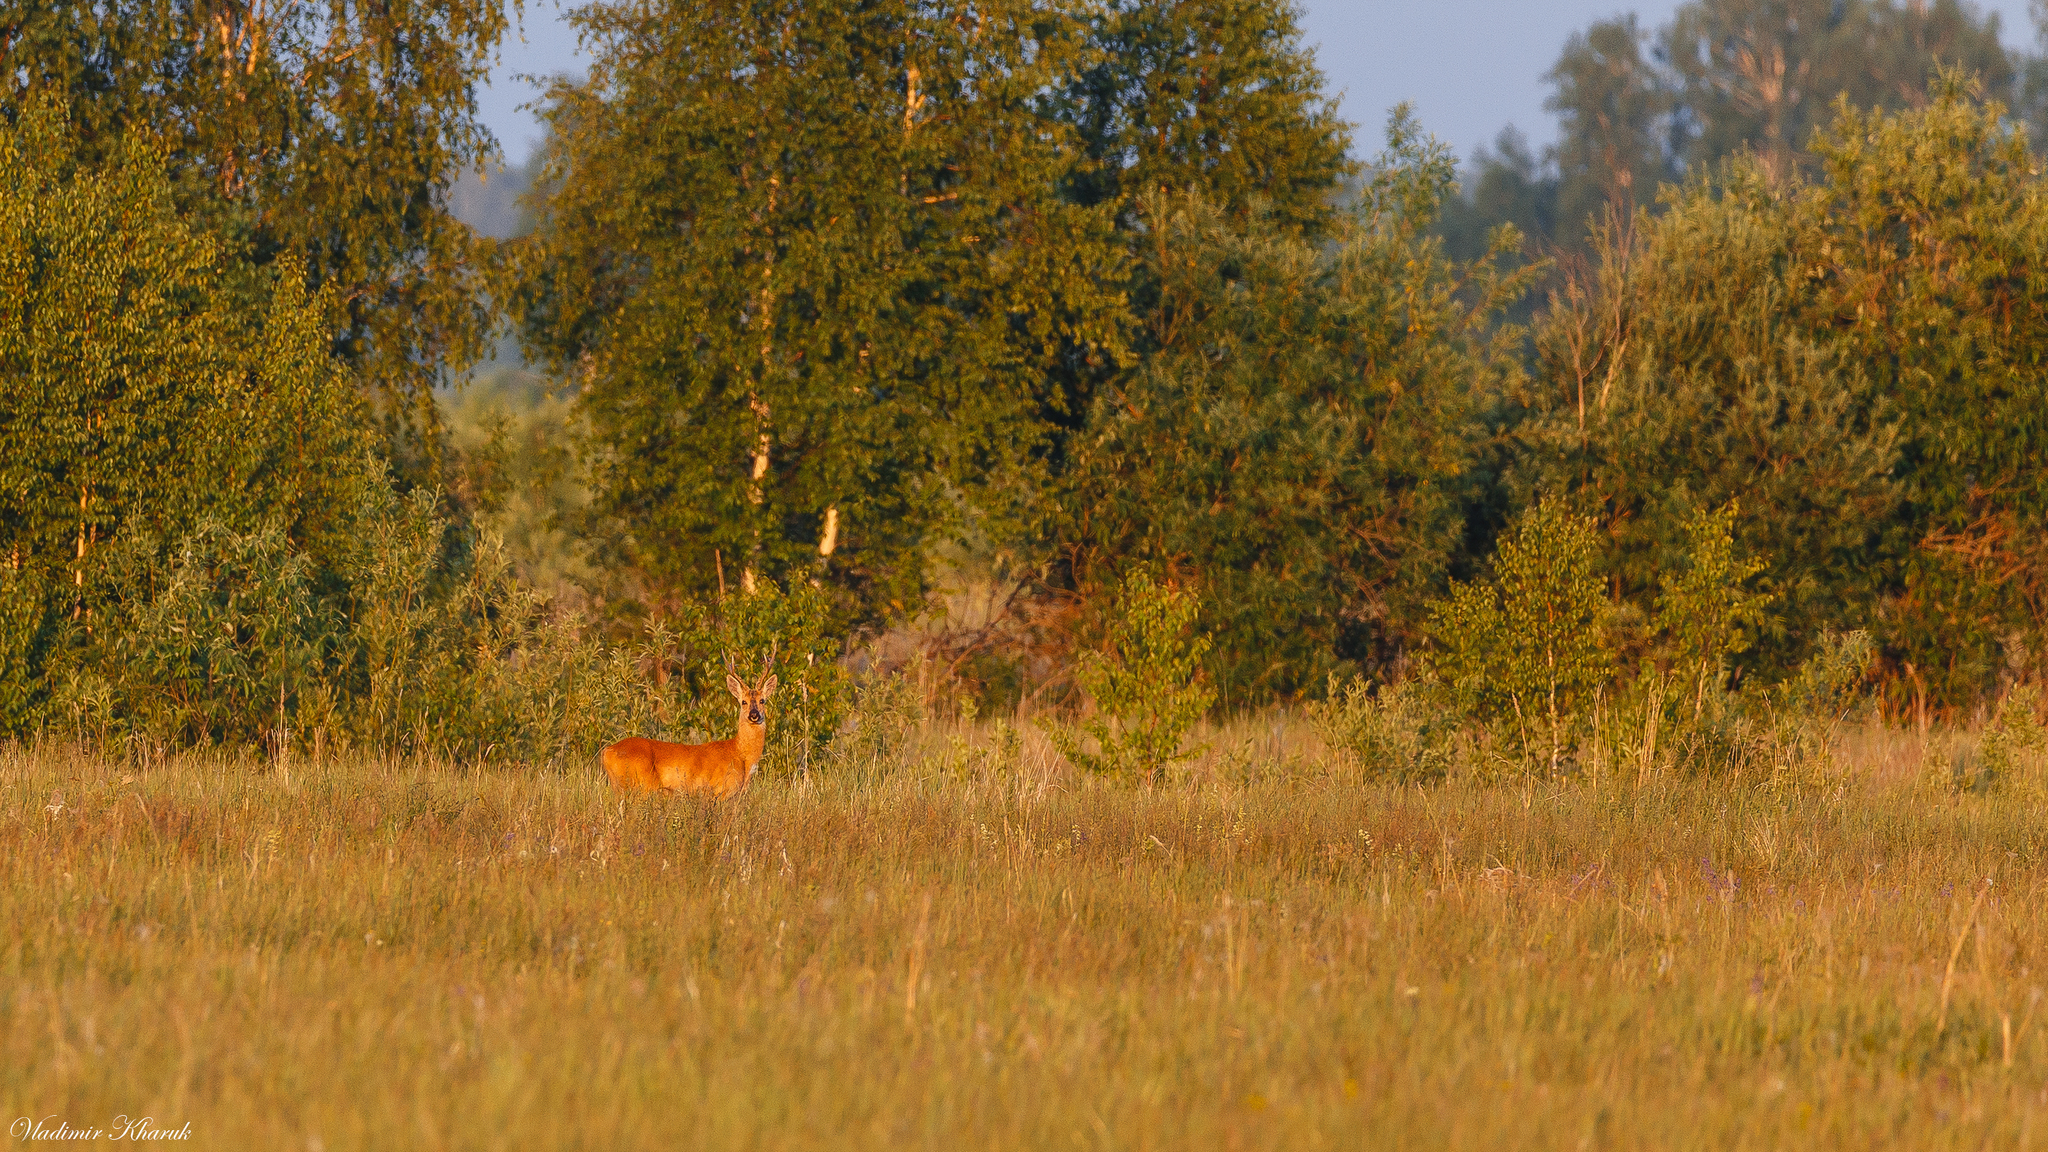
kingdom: Animalia
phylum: Chordata
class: Mammalia
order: Artiodactyla
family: Cervidae
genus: Capreolus
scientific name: Capreolus pygargus
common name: Siberian roe
